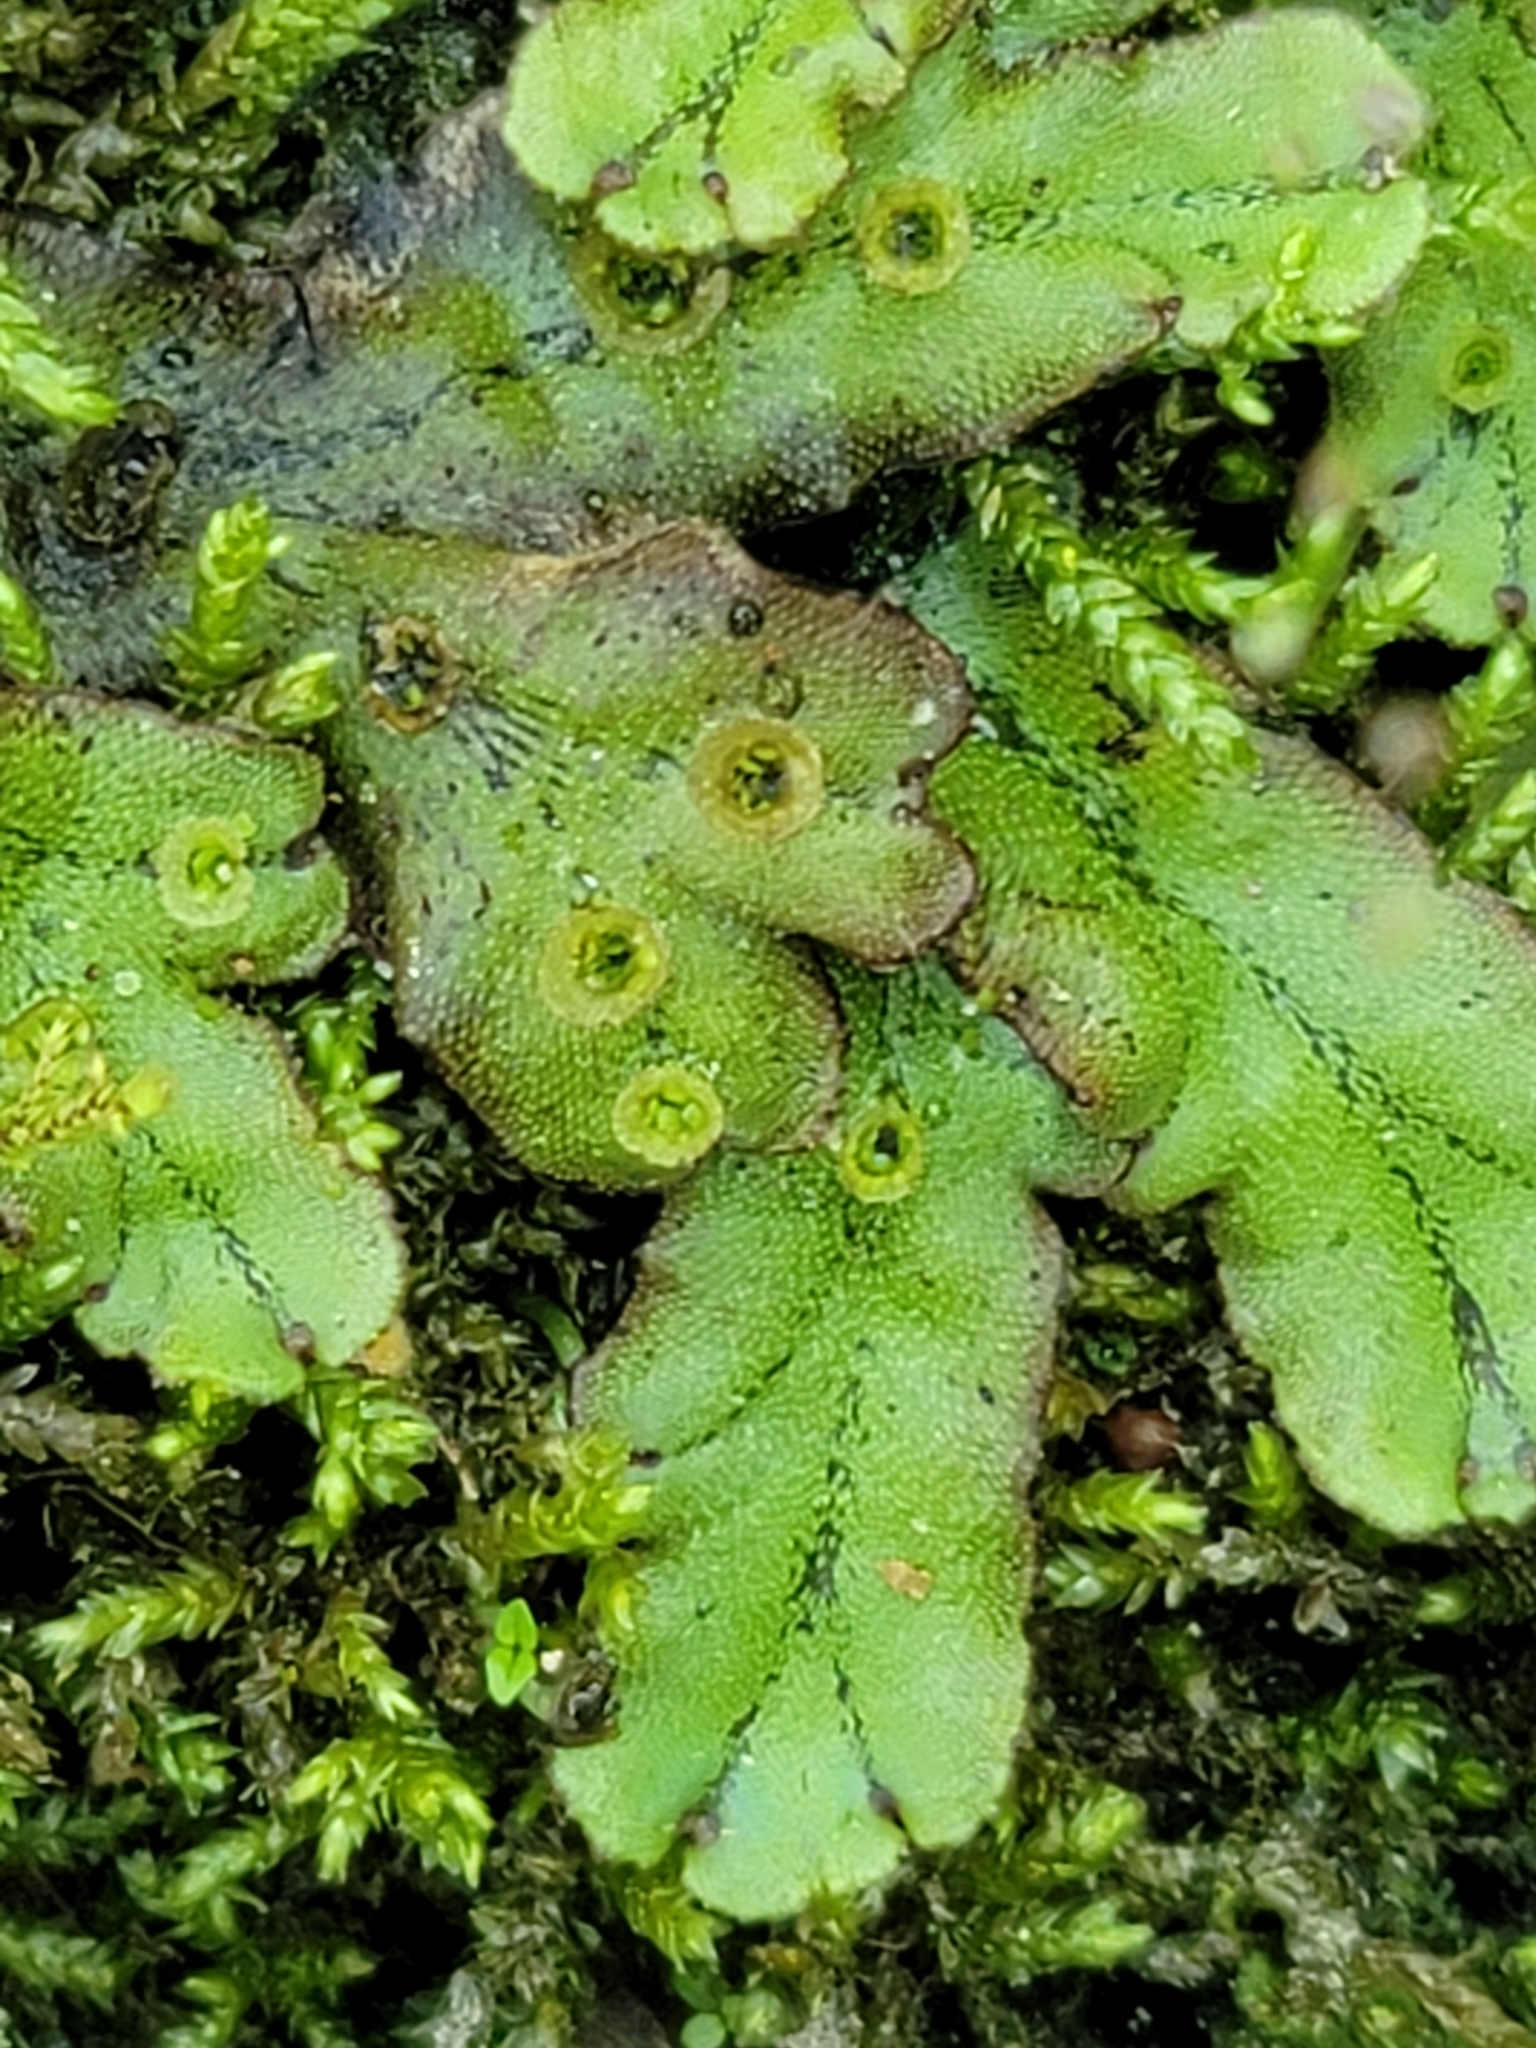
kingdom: Plantae
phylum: Marchantiophyta
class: Marchantiopsida
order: Marchantiales
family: Marchantiaceae
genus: Marchantia
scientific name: Marchantia polymorpha
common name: Common liverwort
